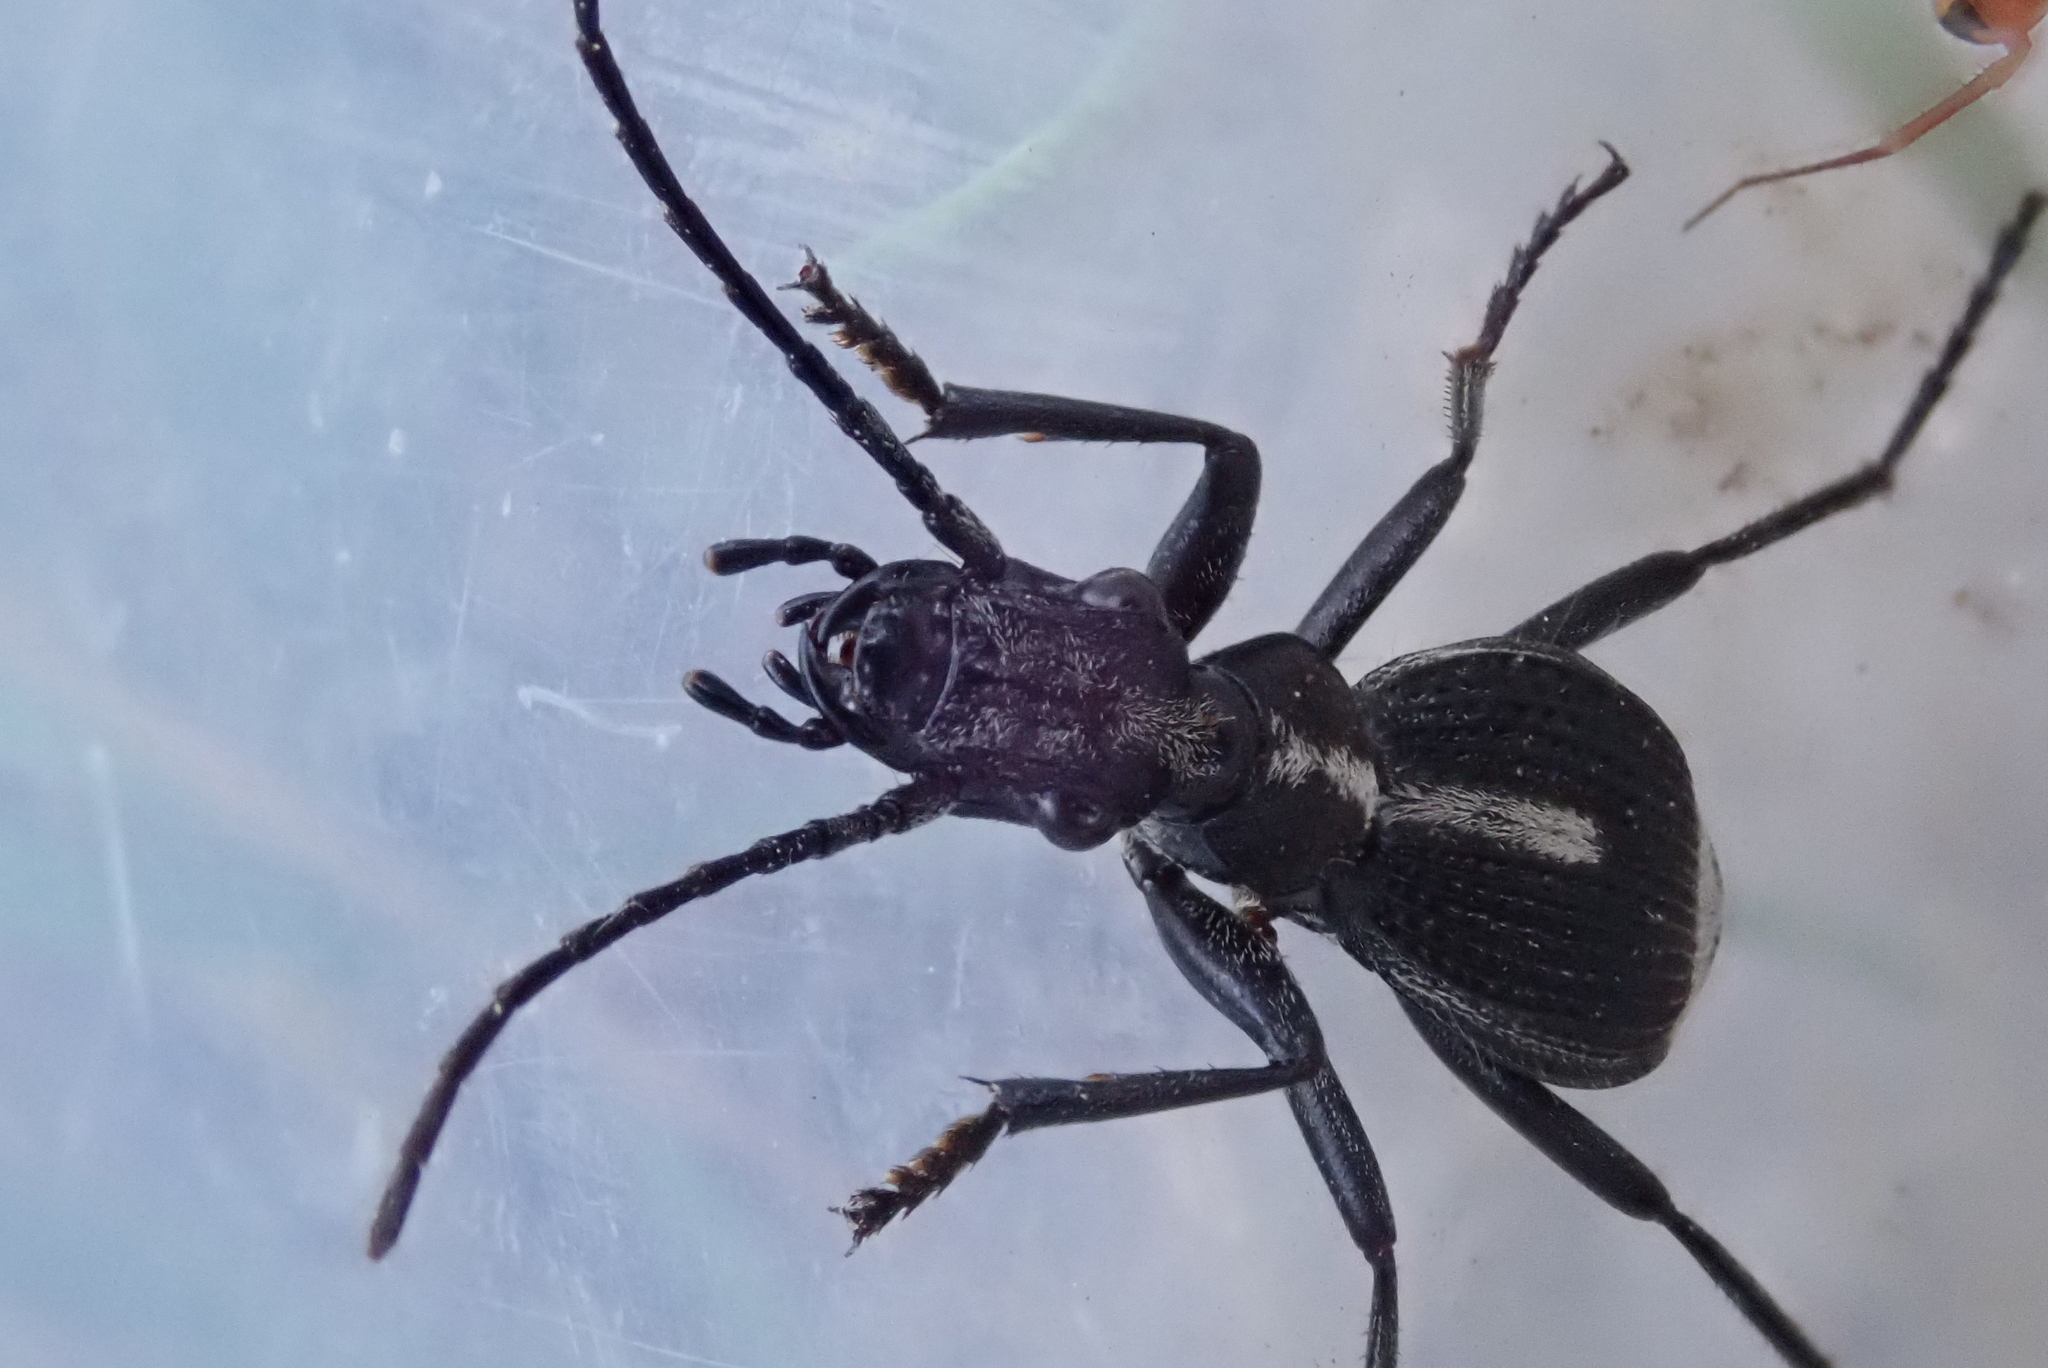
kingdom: Animalia
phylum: Arthropoda
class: Insecta
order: Coleoptera
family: Carabidae
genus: Cypholoba
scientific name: Cypholoba rutata
